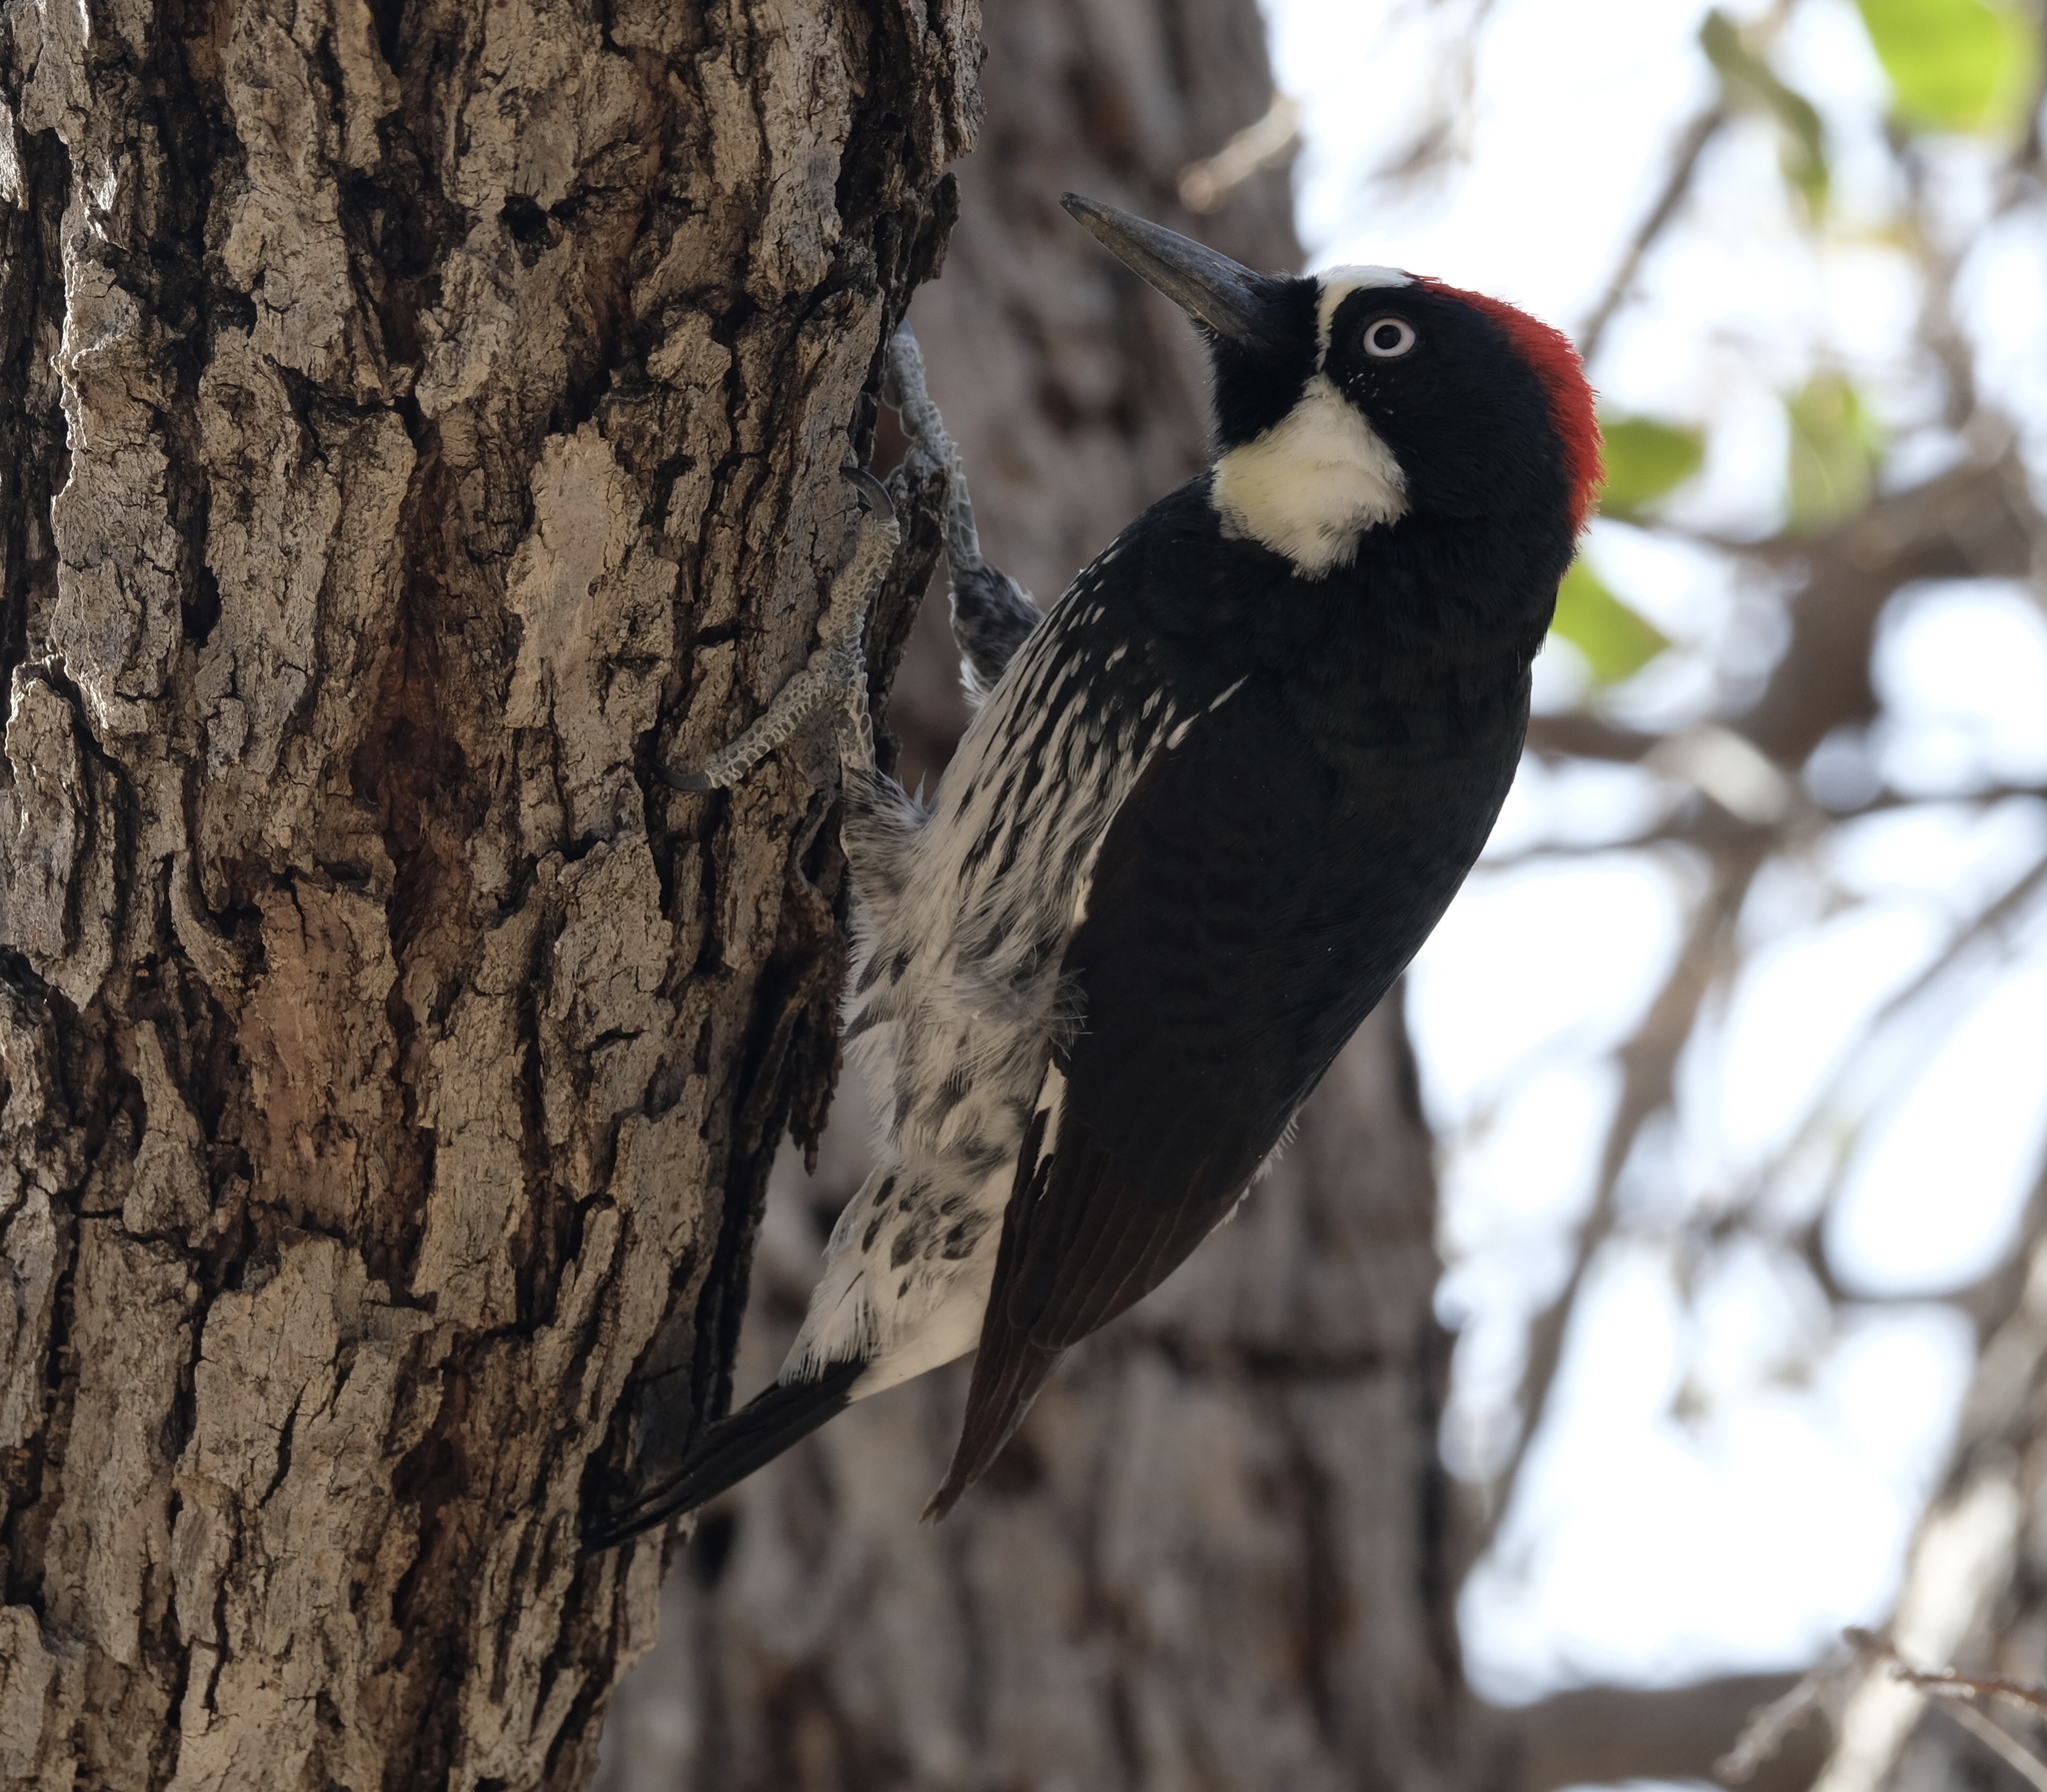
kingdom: Animalia
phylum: Chordata
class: Aves
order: Piciformes
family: Picidae
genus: Melanerpes
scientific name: Melanerpes formicivorus
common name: Acorn woodpecker
